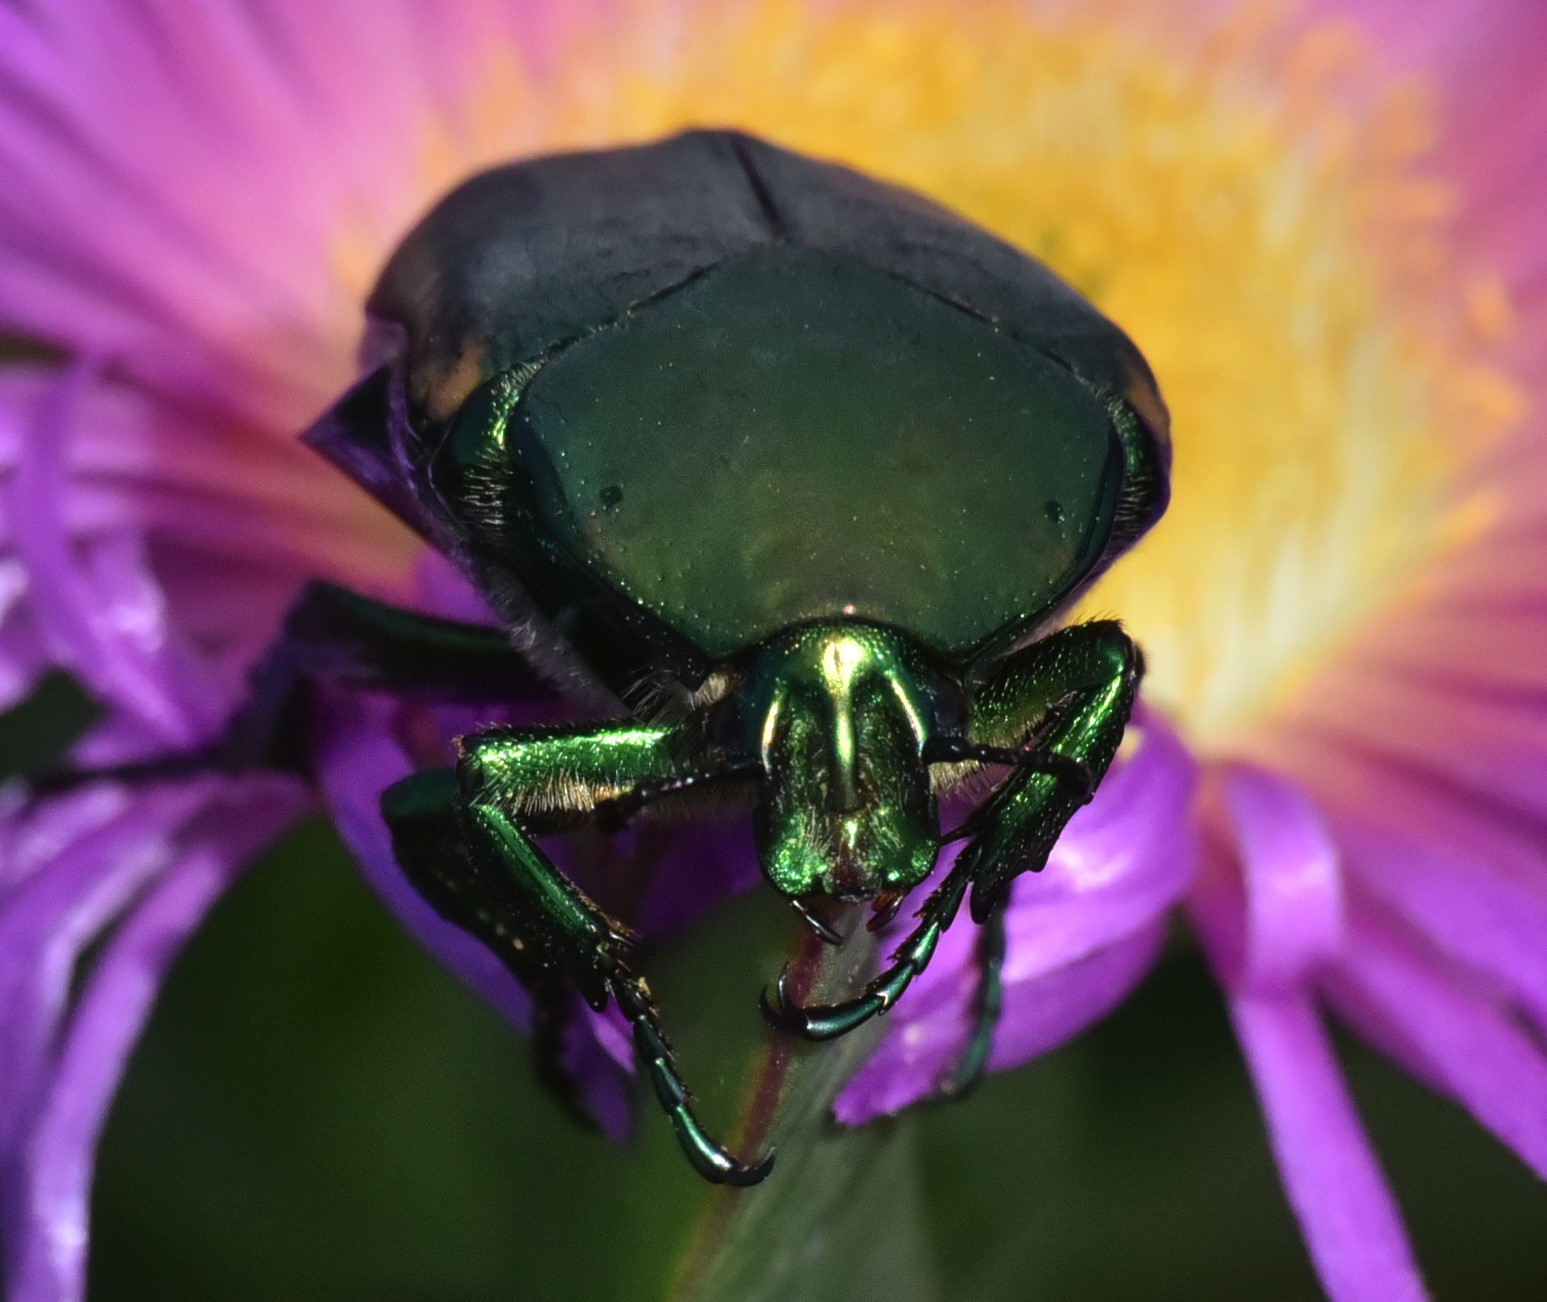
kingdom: Animalia
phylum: Arthropoda
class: Insecta
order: Coleoptera
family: Scarabaeidae
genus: Cotinis
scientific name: Cotinis mutabilis
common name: Figeater beetle
